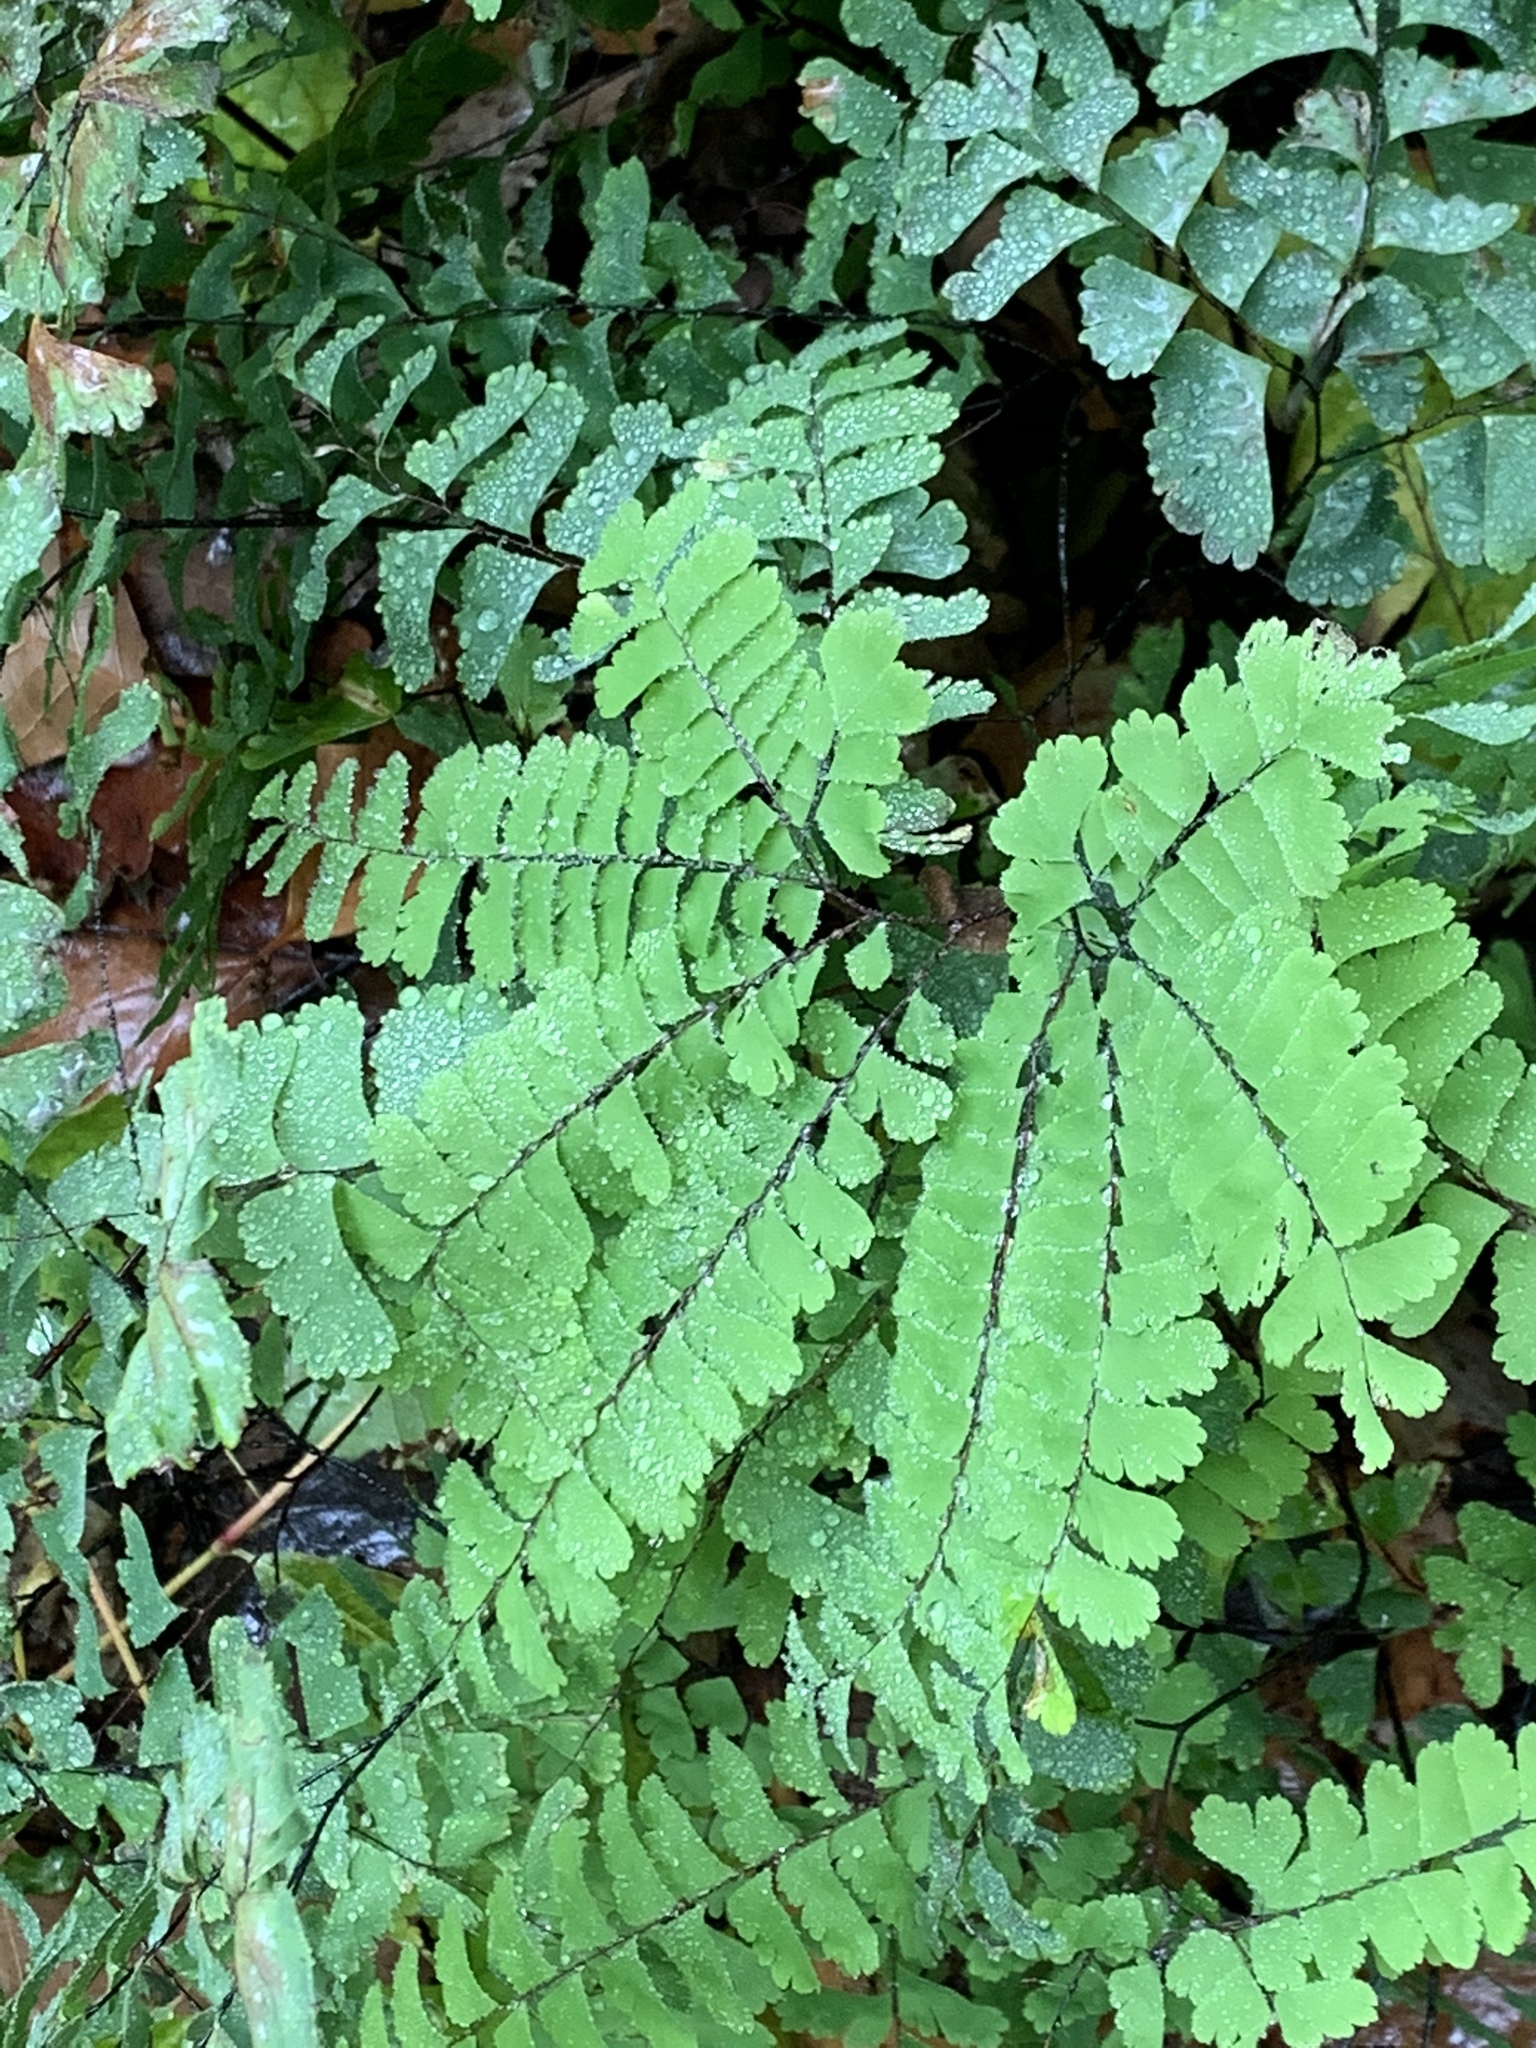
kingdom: Plantae
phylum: Tracheophyta
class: Polypodiopsida
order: Polypodiales
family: Pteridaceae
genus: Adiantum
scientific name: Adiantum pedatum
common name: Five-finger fern
